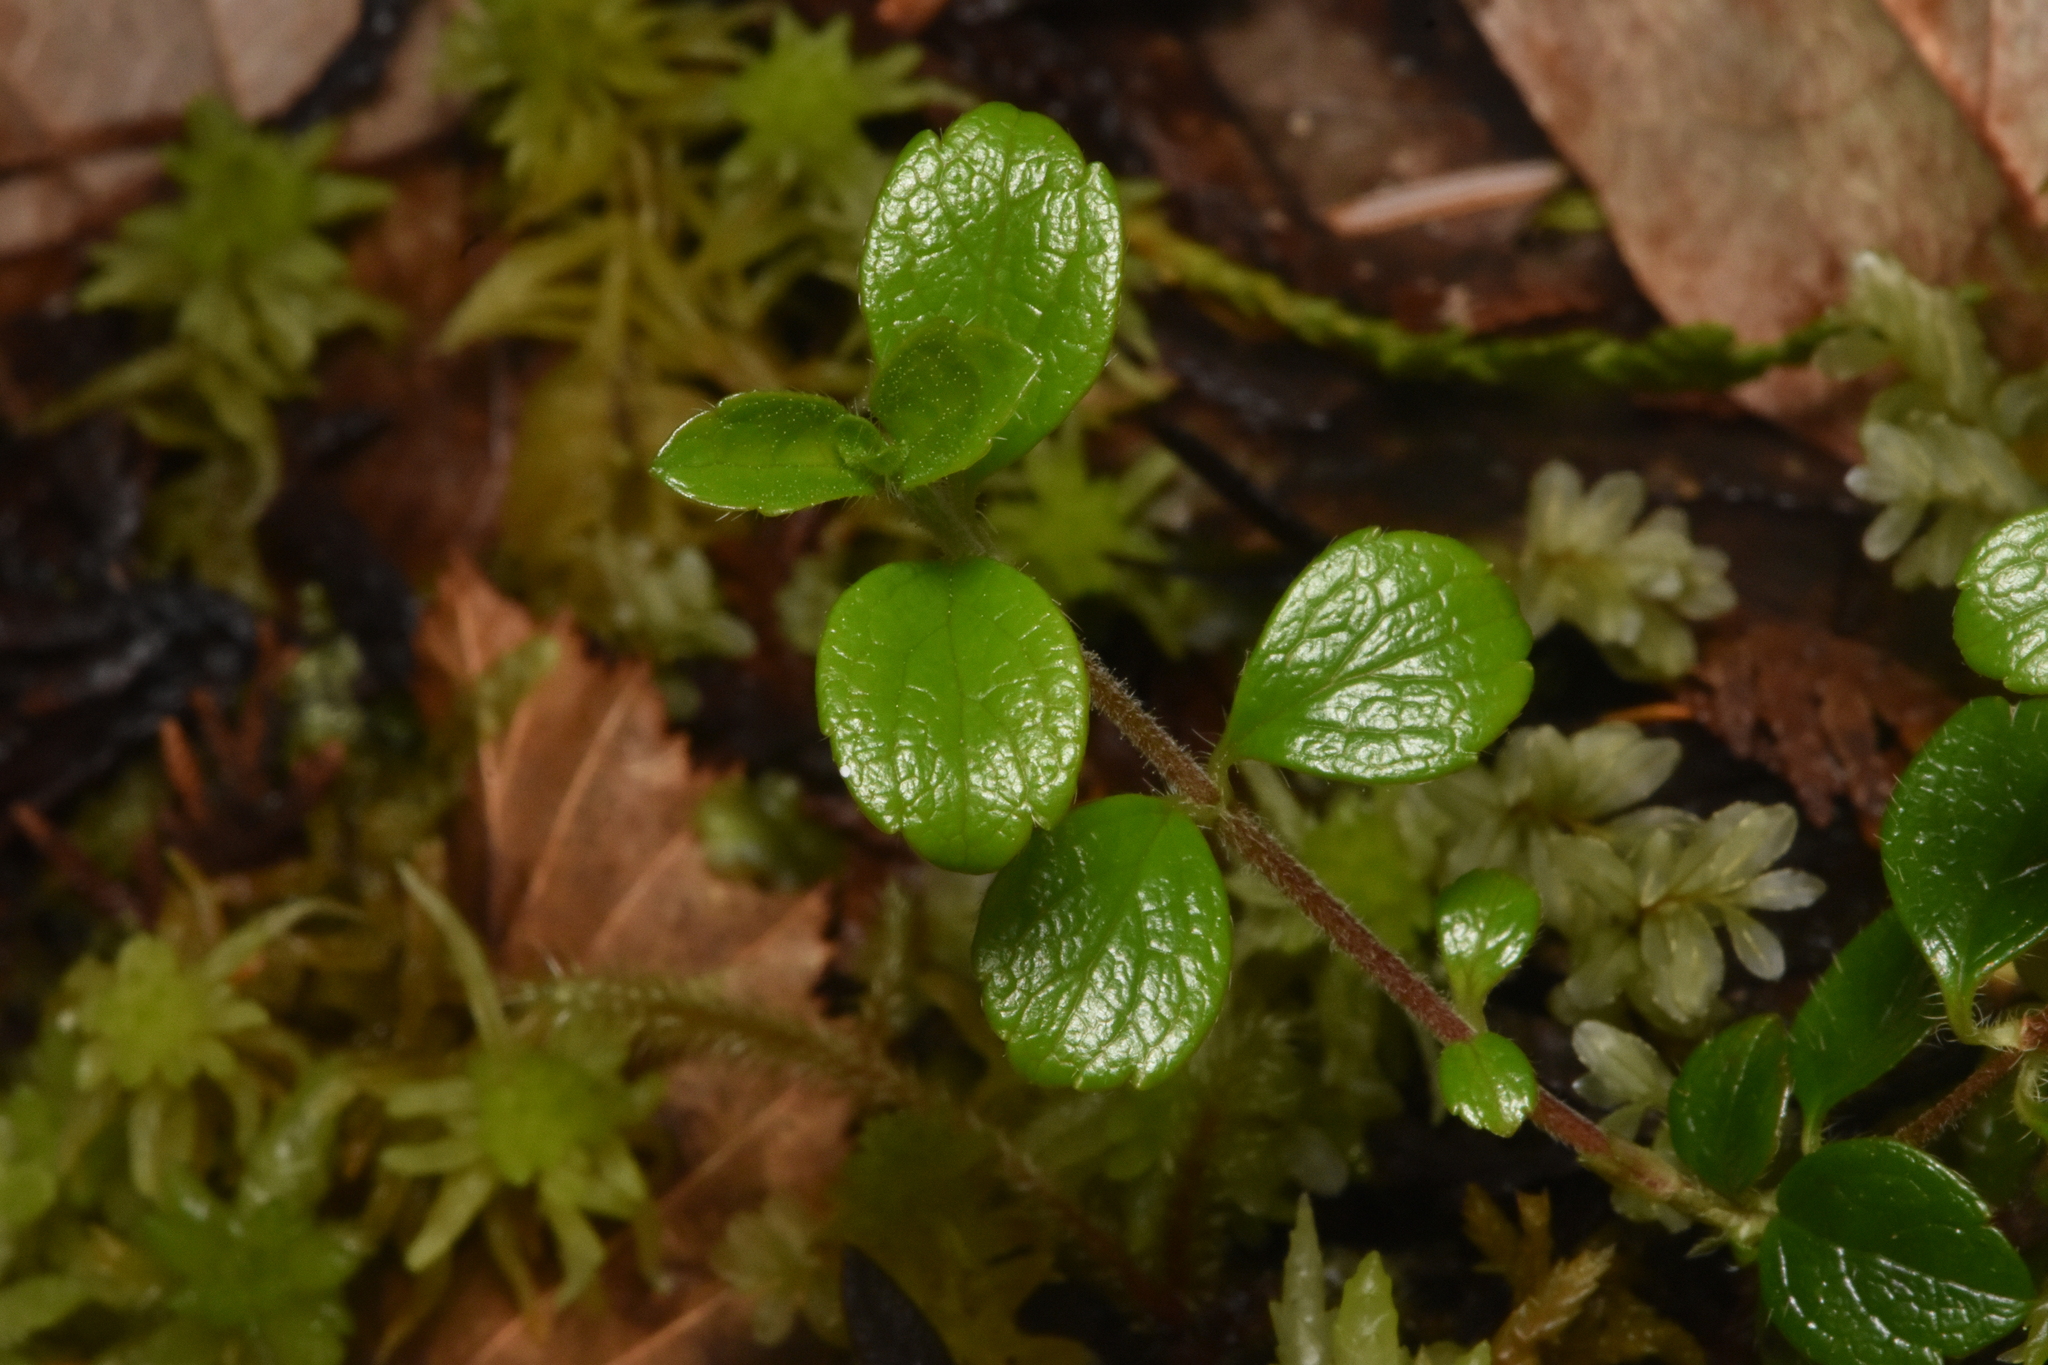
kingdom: Plantae
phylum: Tracheophyta
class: Magnoliopsida
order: Dipsacales
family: Caprifoliaceae
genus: Linnaea
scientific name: Linnaea borealis
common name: Twinflower
